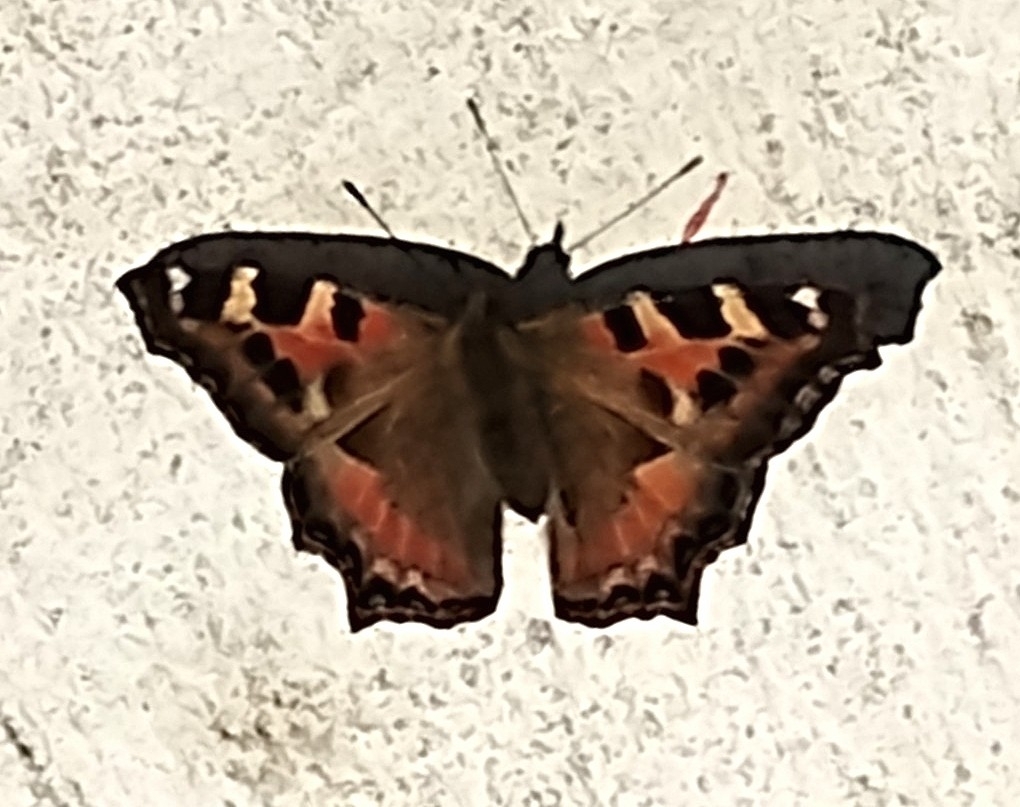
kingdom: Animalia
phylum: Arthropoda
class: Insecta
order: Lepidoptera
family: Nymphalidae
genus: Aglais
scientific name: Aglais caschmirensis
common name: Indian tortoiseshell
